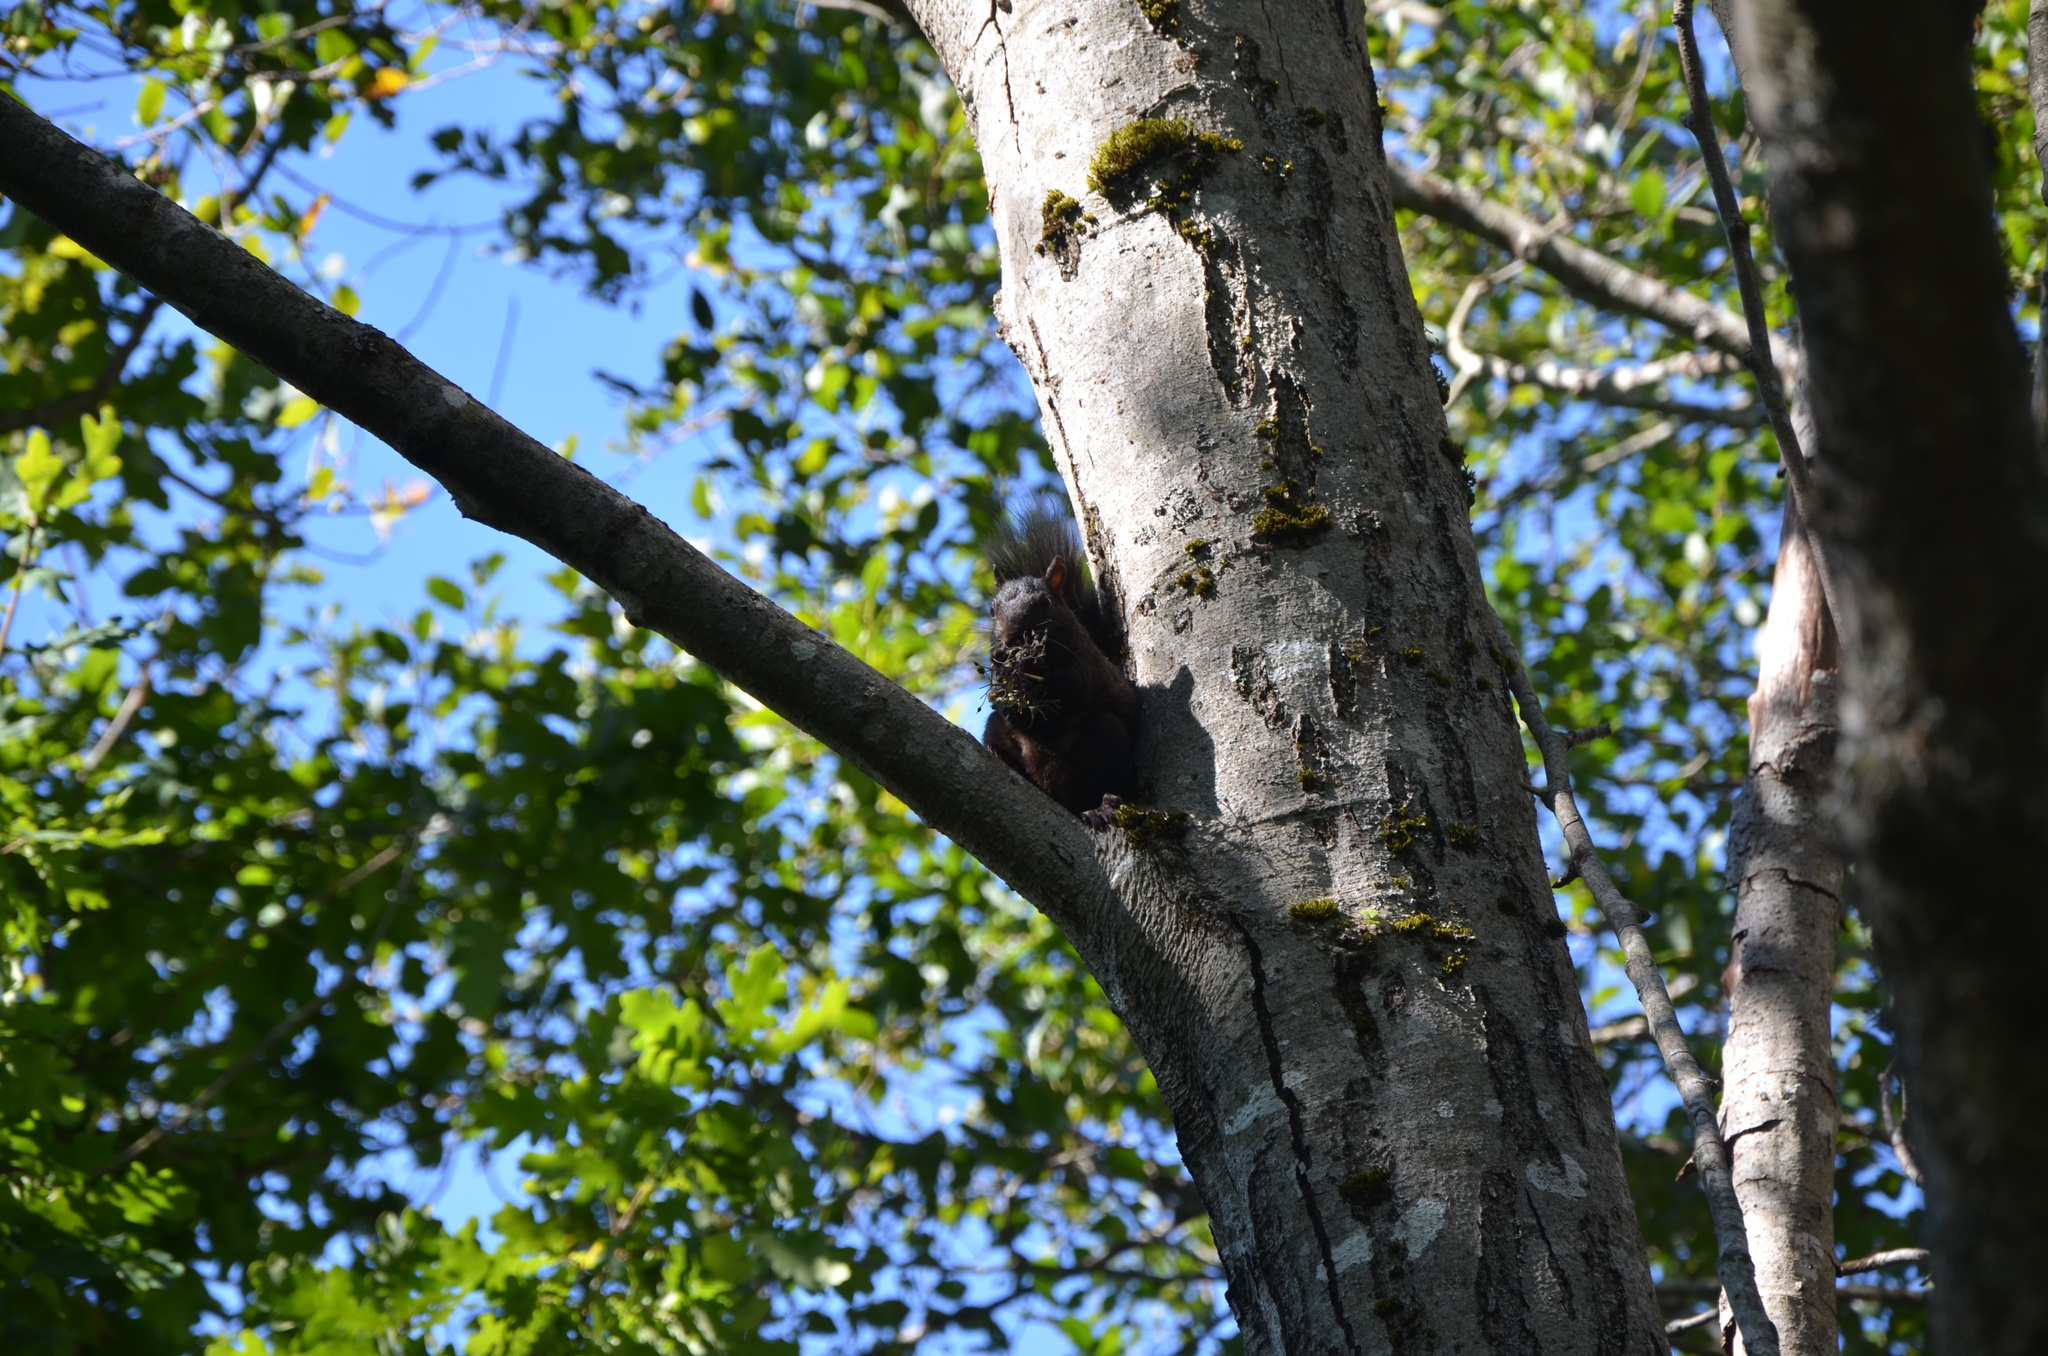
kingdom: Animalia
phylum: Chordata
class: Mammalia
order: Rodentia
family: Sciuridae
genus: Sciurus
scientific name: Sciurus carolinensis
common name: Eastern gray squirrel
